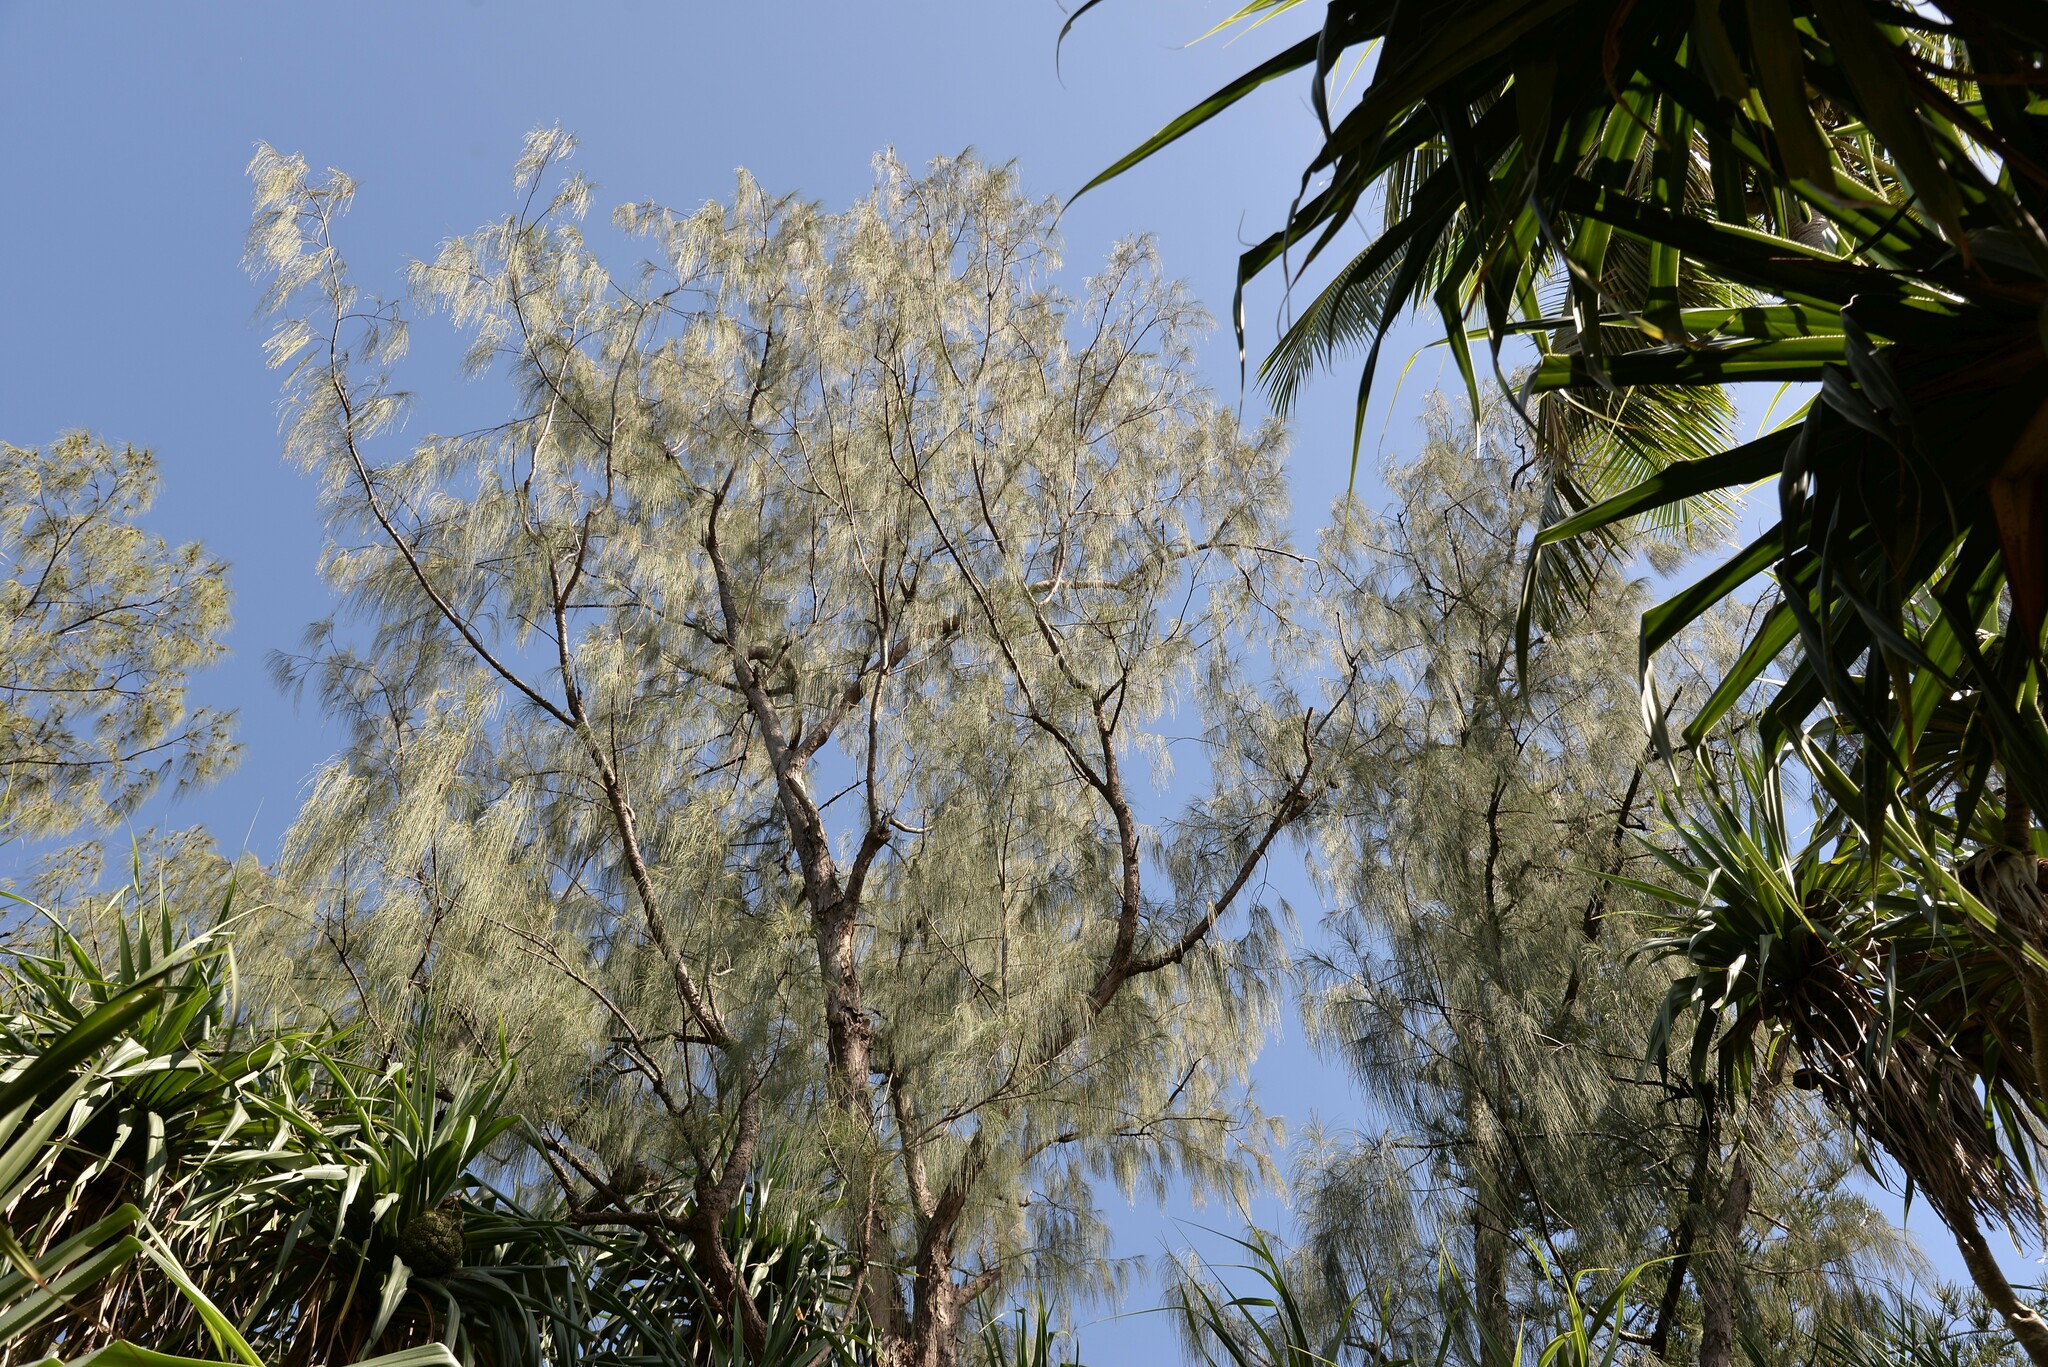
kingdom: Plantae
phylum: Tracheophyta
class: Magnoliopsida
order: Fagales
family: Casuarinaceae
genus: Casuarina
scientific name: Casuarina equisetifolia
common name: Beach sheoak
